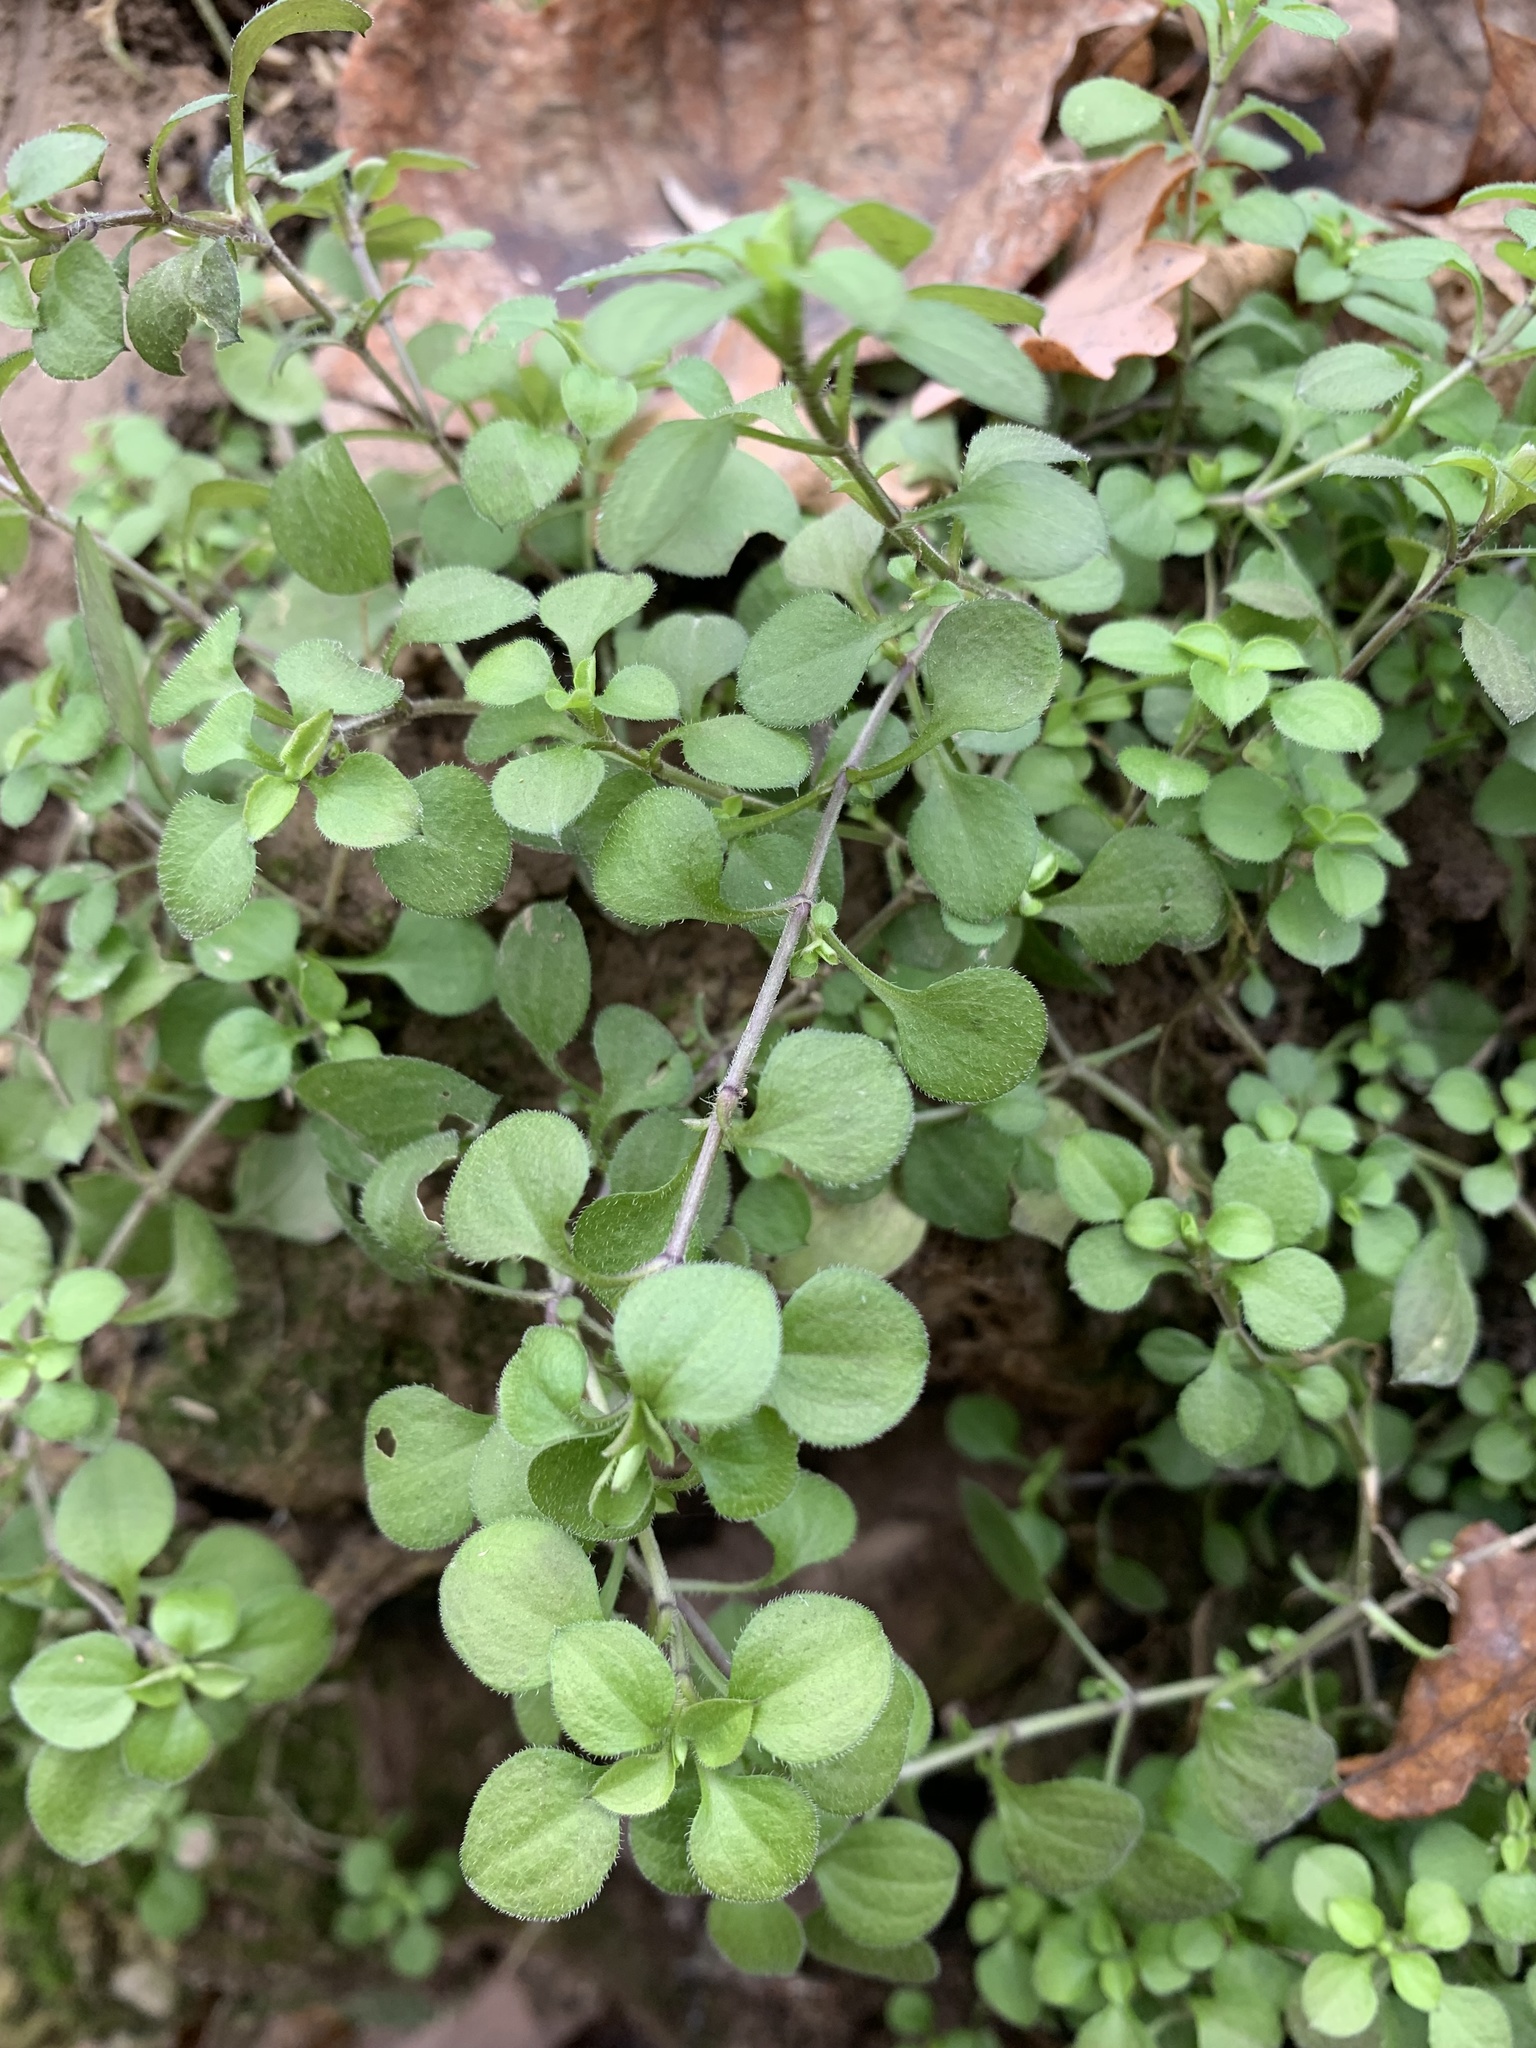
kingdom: Plantae
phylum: Tracheophyta
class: Magnoliopsida
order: Caryophyllales
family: Caryophyllaceae
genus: Moehringia
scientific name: Moehringia trinervia
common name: Three-nerved sandwort
